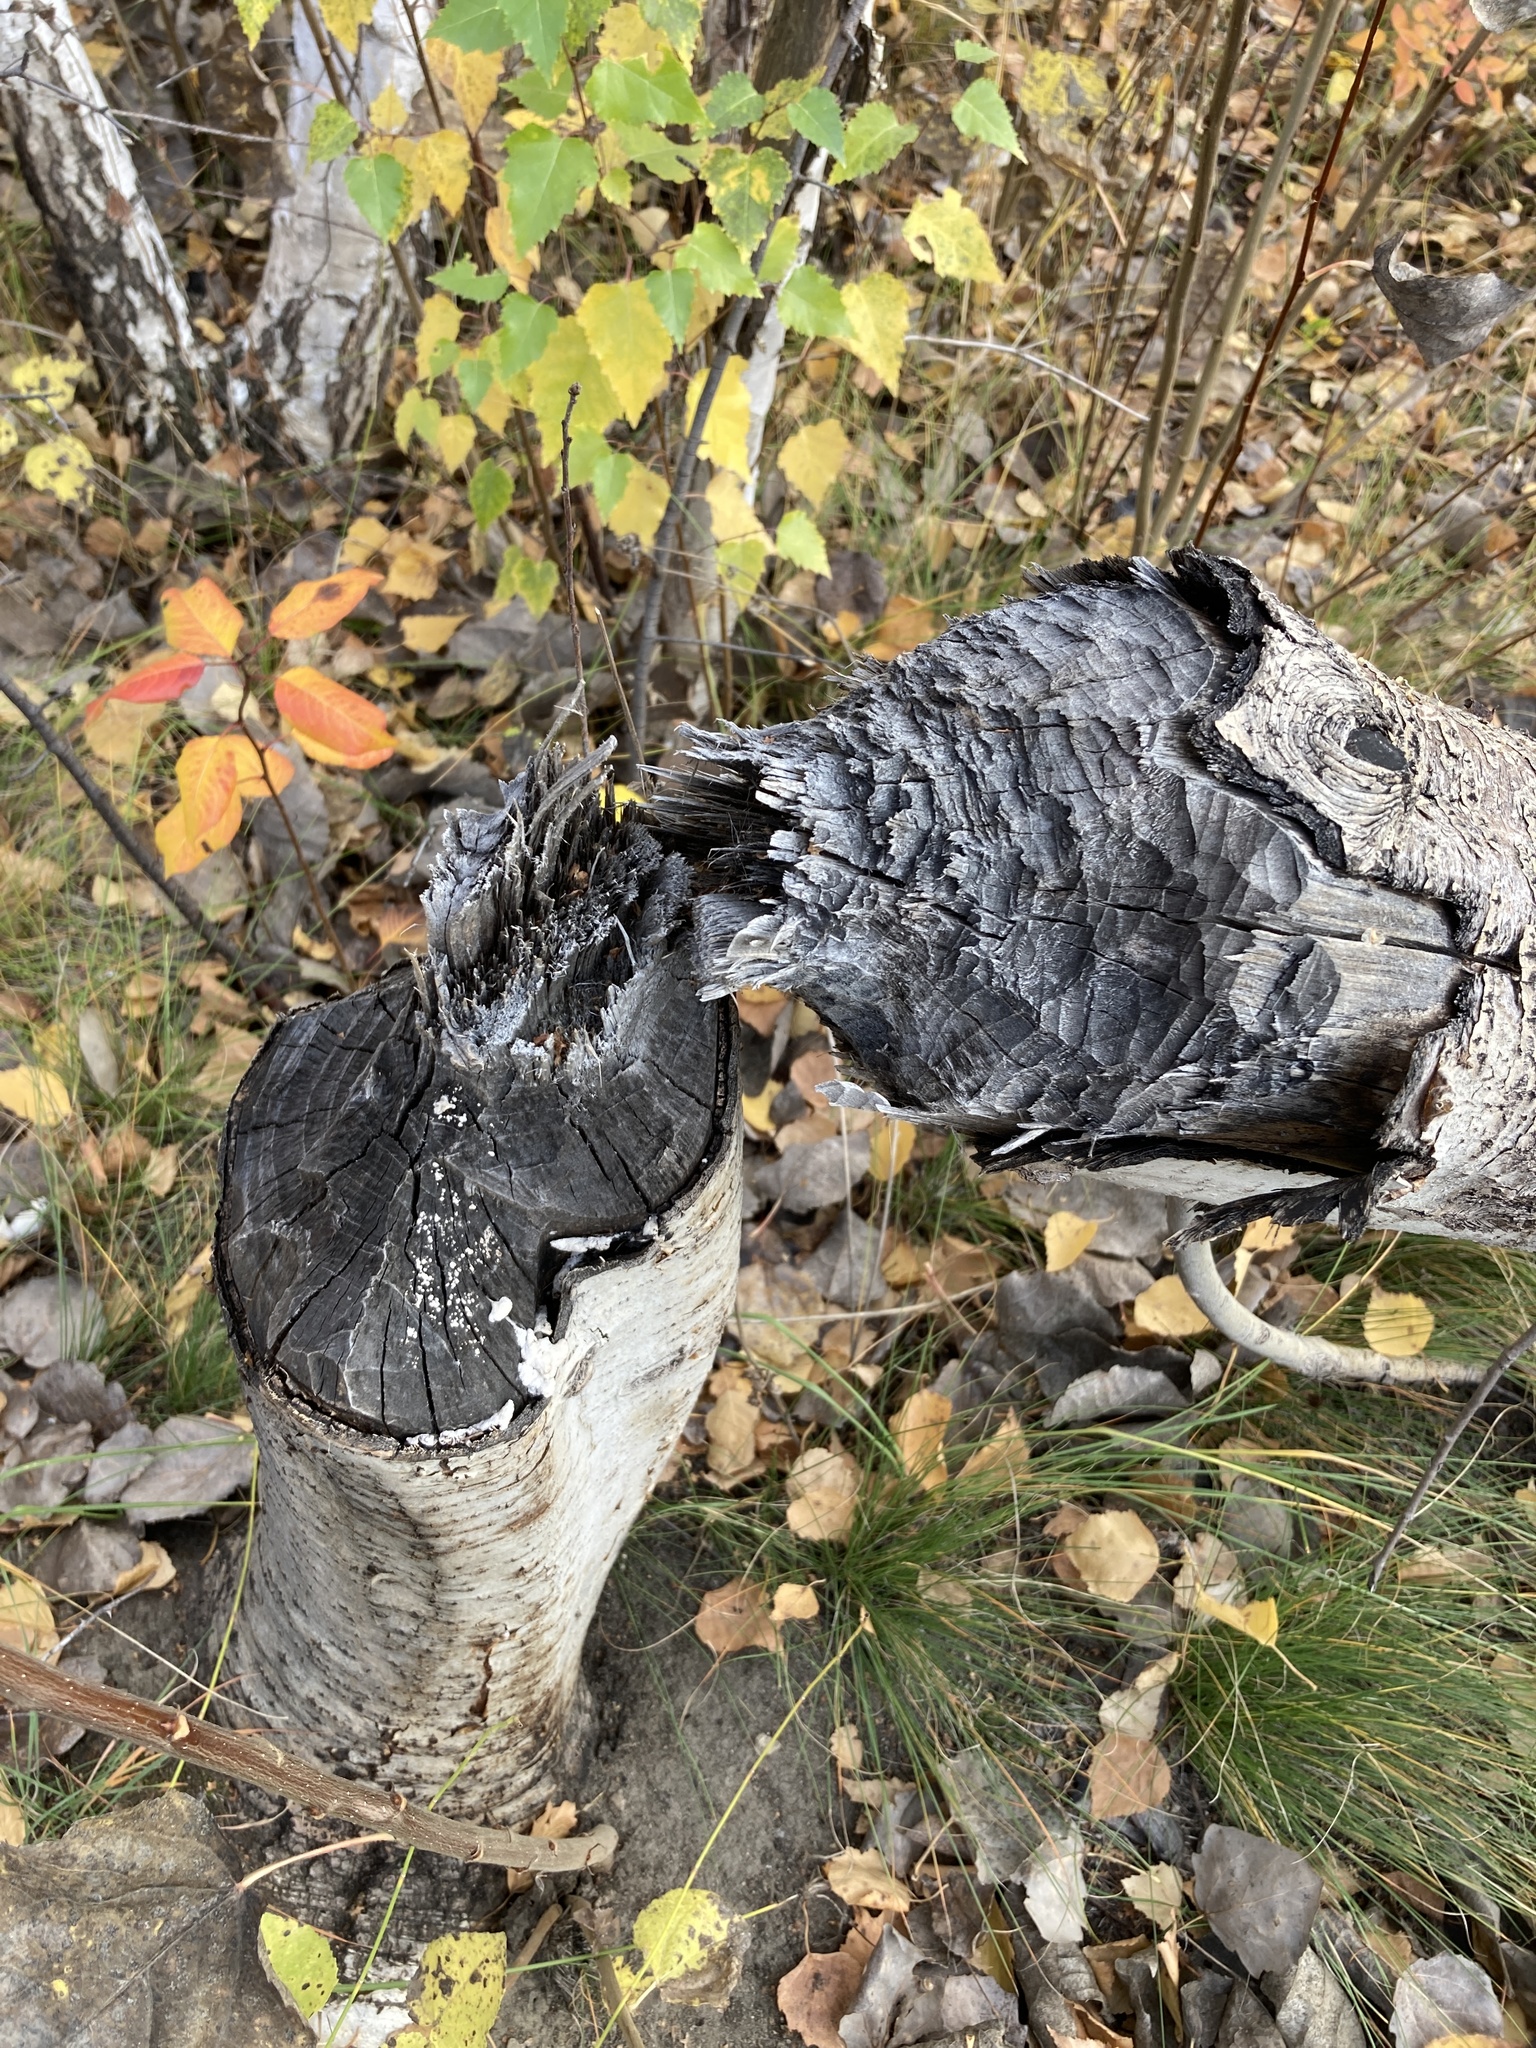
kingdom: Animalia
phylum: Chordata
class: Mammalia
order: Rodentia
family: Castoridae
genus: Castor
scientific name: Castor fiber
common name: Eurasian beaver
